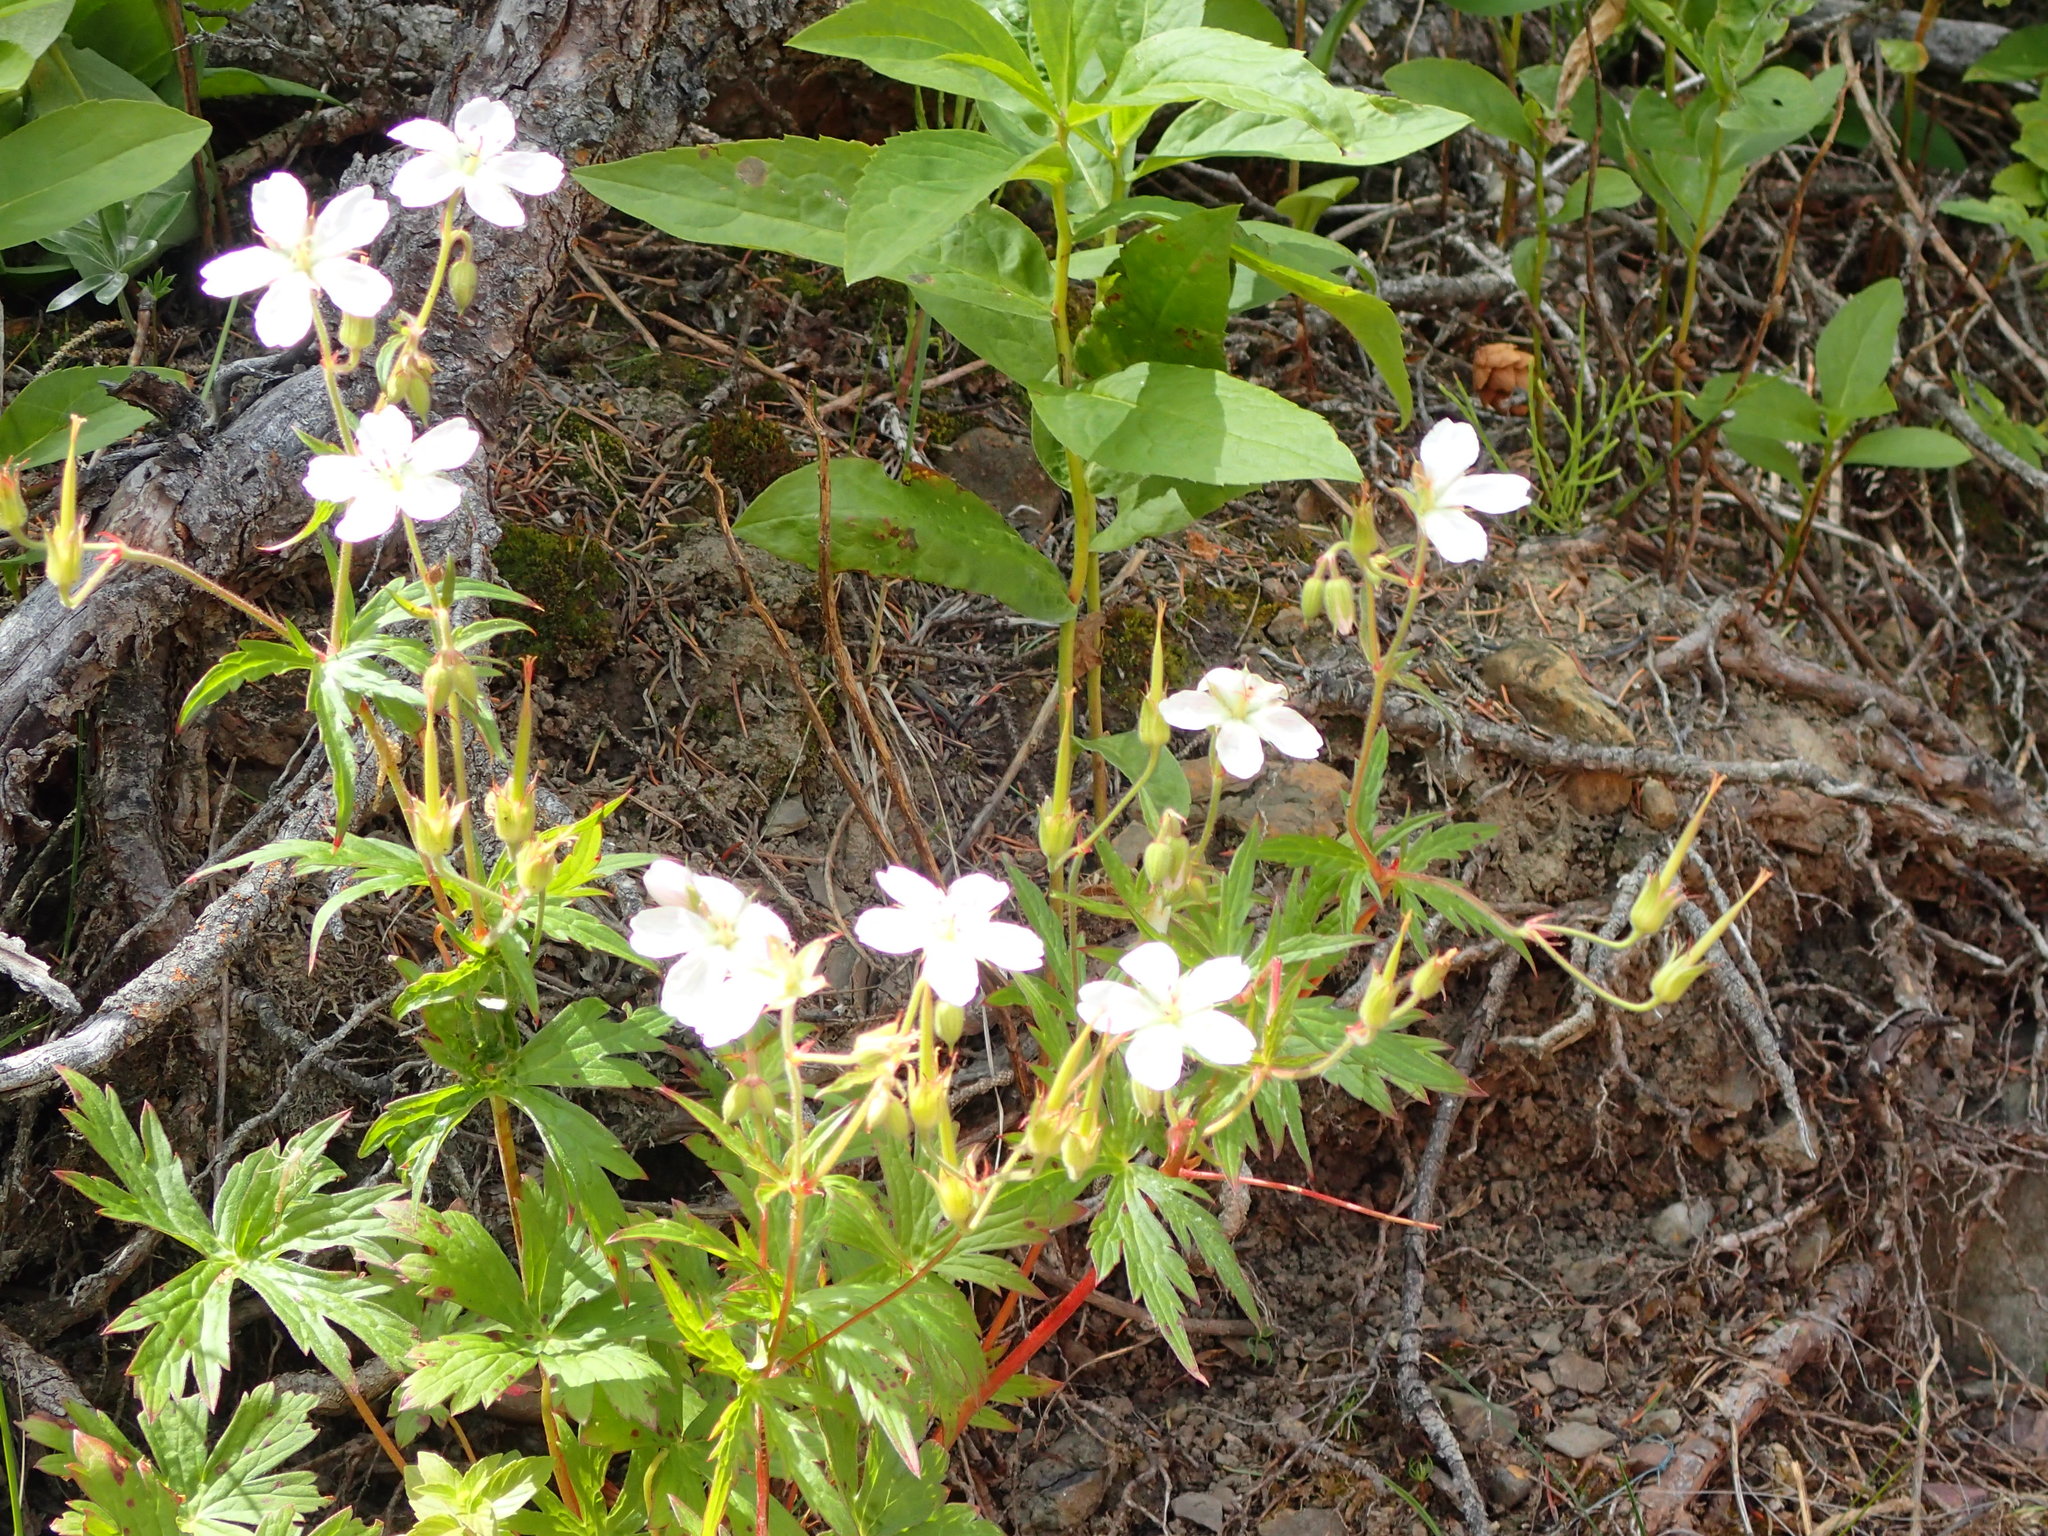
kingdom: Plantae
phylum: Tracheophyta
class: Magnoliopsida
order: Geraniales
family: Geraniaceae
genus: Geranium
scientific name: Geranium richardsonii
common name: Richardson's crane's-bill
